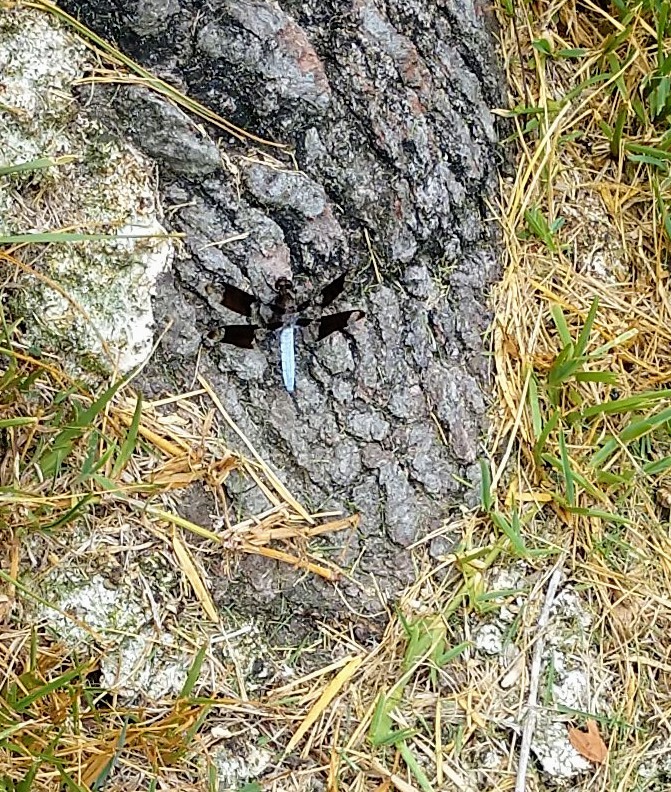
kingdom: Animalia
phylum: Arthropoda
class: Insecta
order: Odonata
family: Libellulidae
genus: Plathemis
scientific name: Plathemis lydia
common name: Common whitetail
